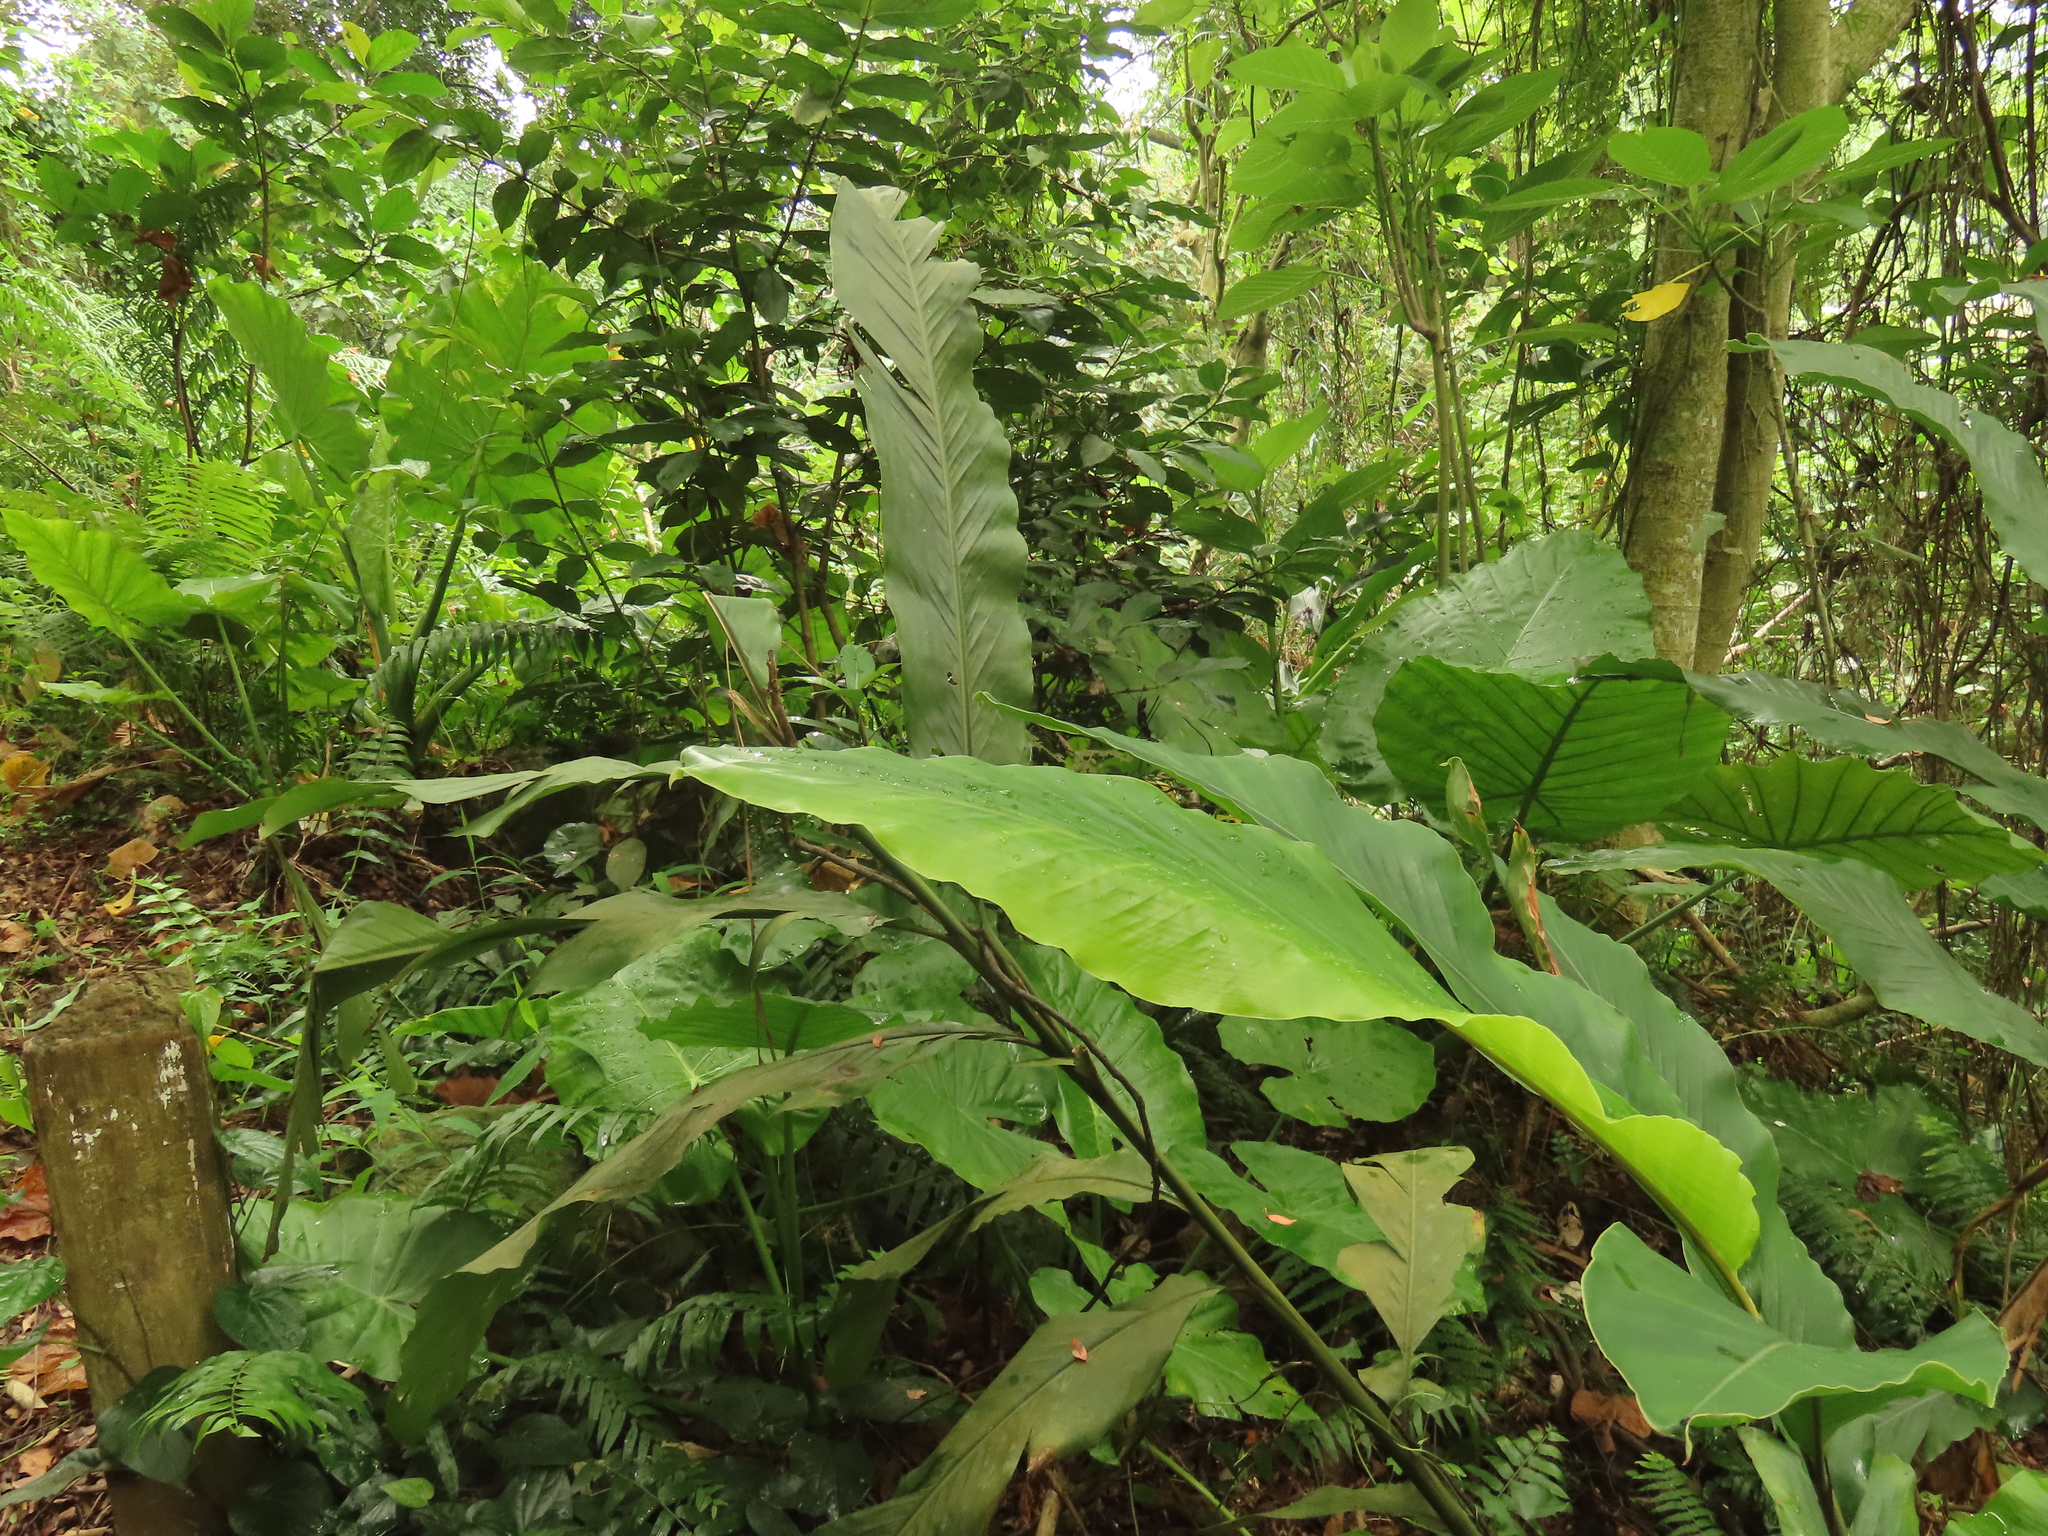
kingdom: Plantae
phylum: Tracheophyta
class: Liliopsida
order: Zingiberales
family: Zingiberaceae
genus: Alpinia
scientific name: Alpinia uraiensis
